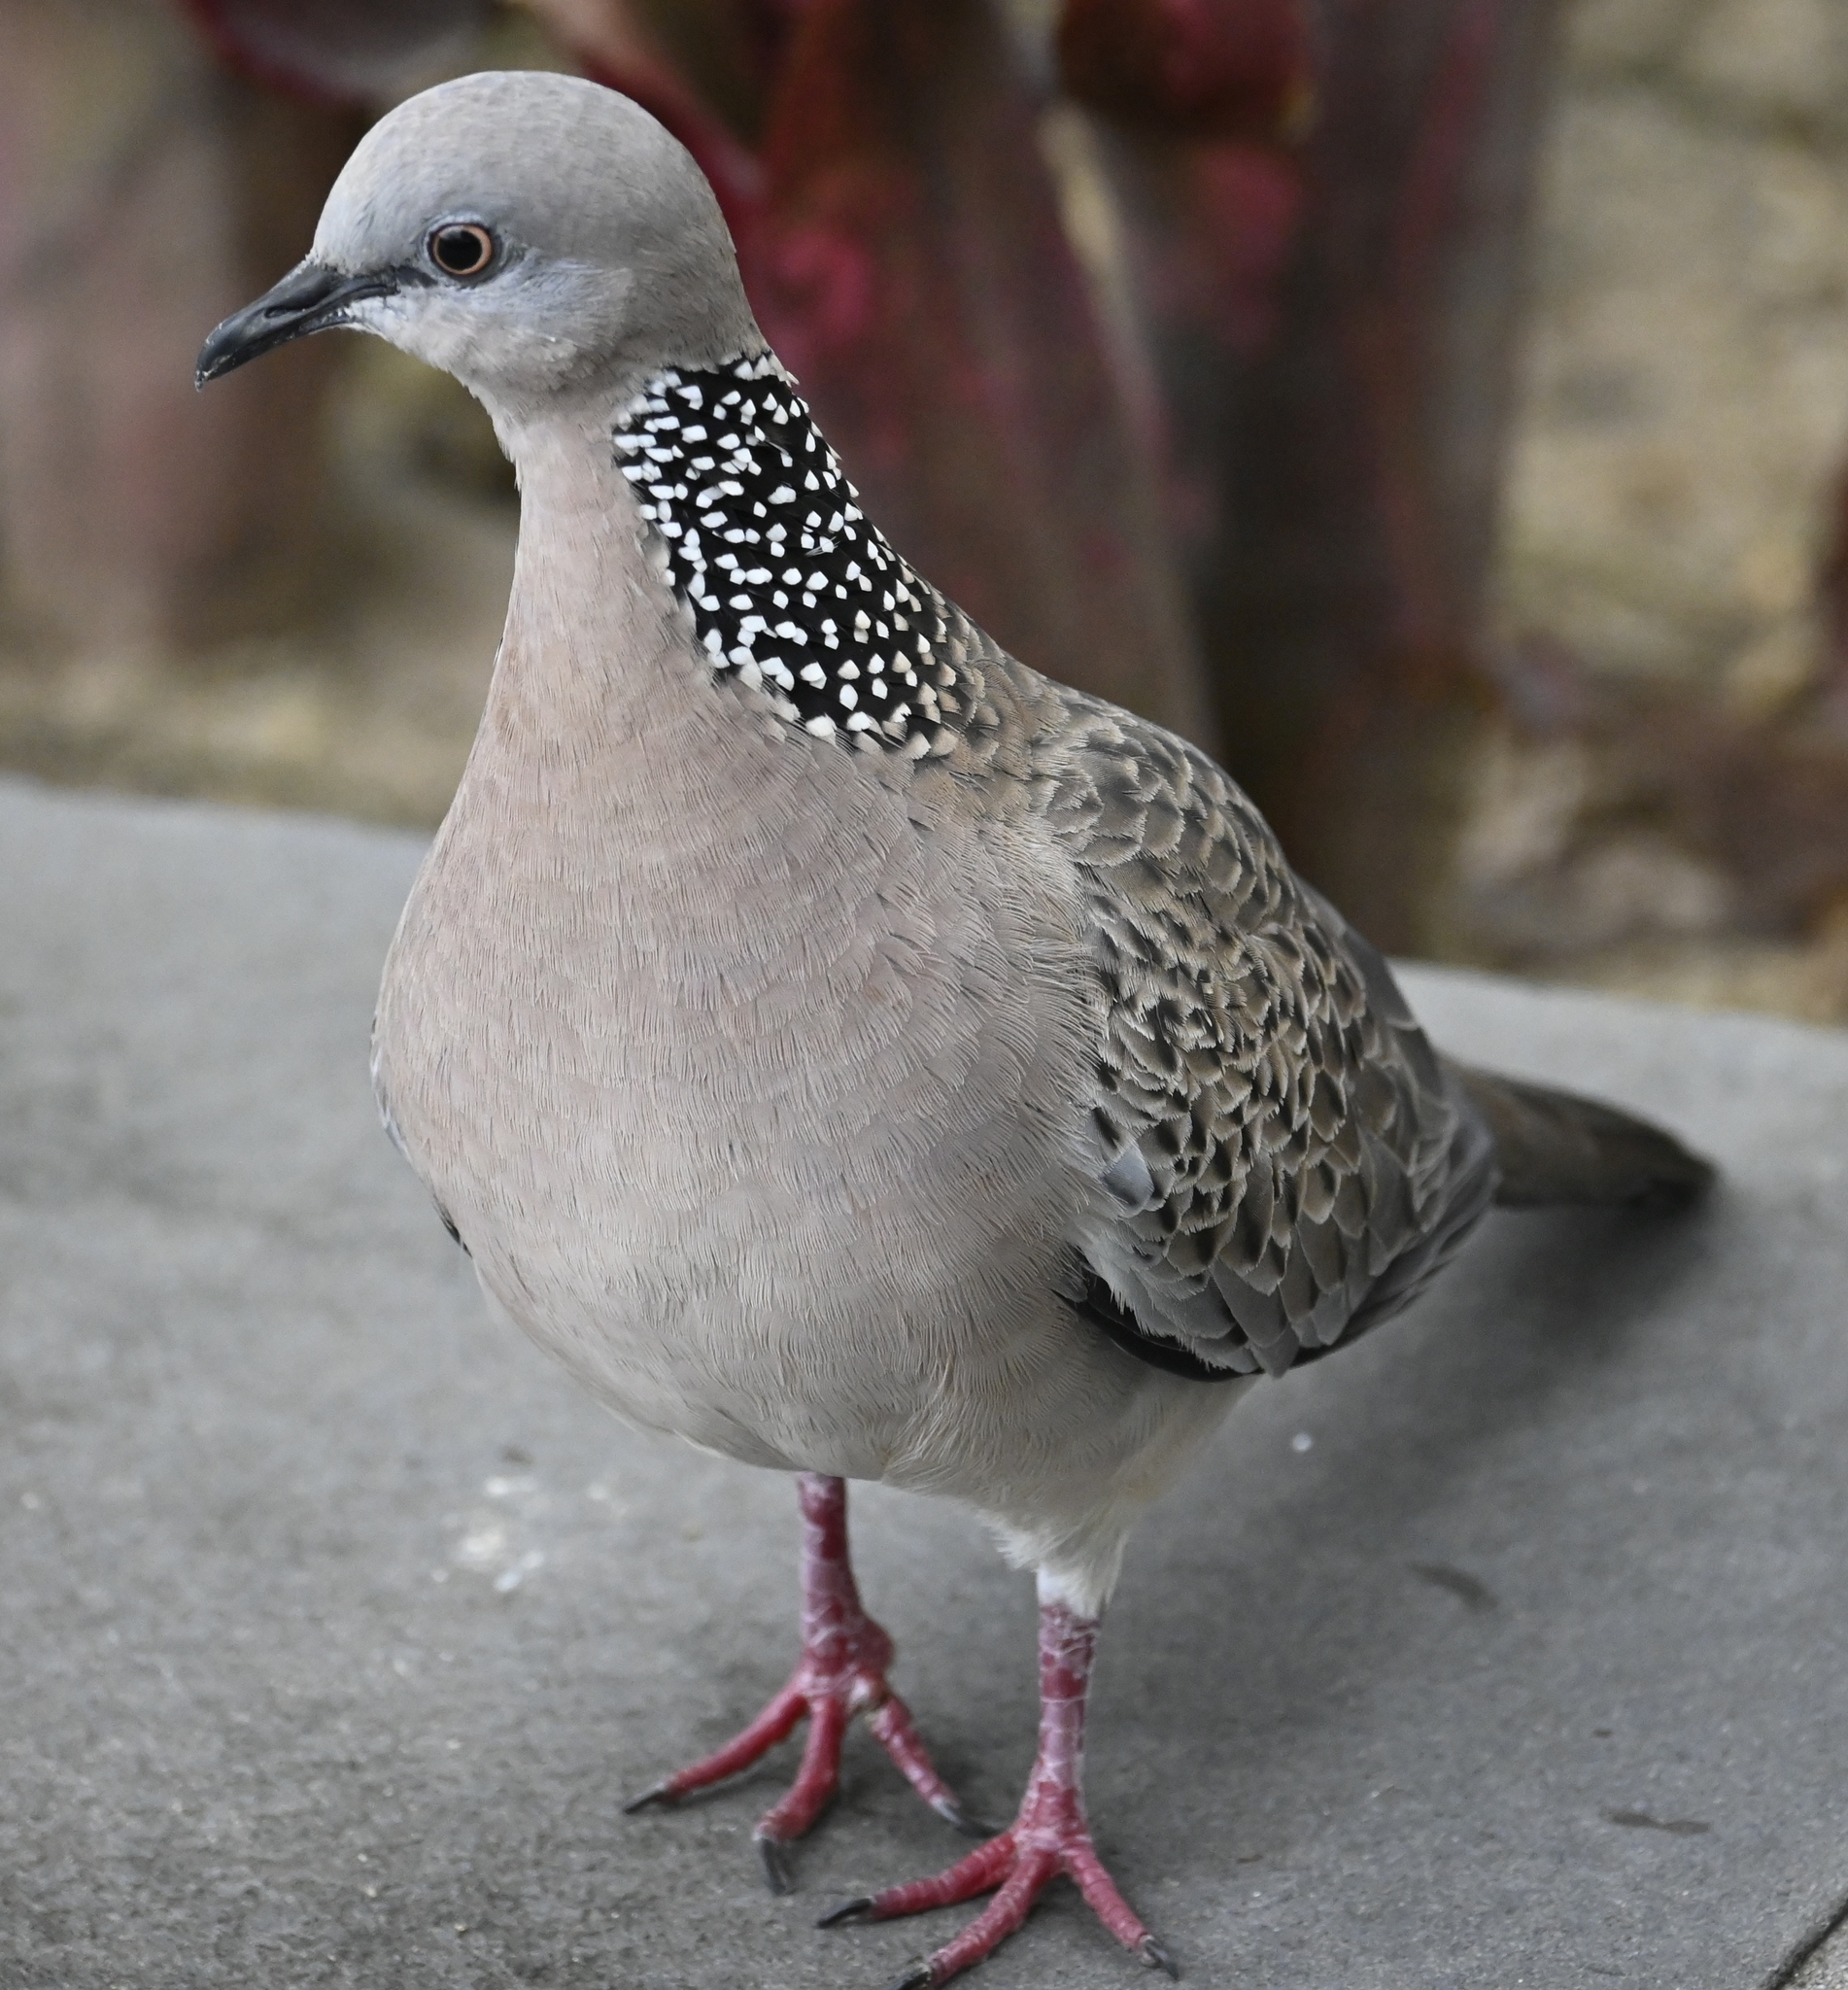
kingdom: Animalia
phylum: Chordata
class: Aves
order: Columbiformes
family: Columbidae
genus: Spilopelia
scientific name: Spilopelia chinensis
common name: Spotted dove
